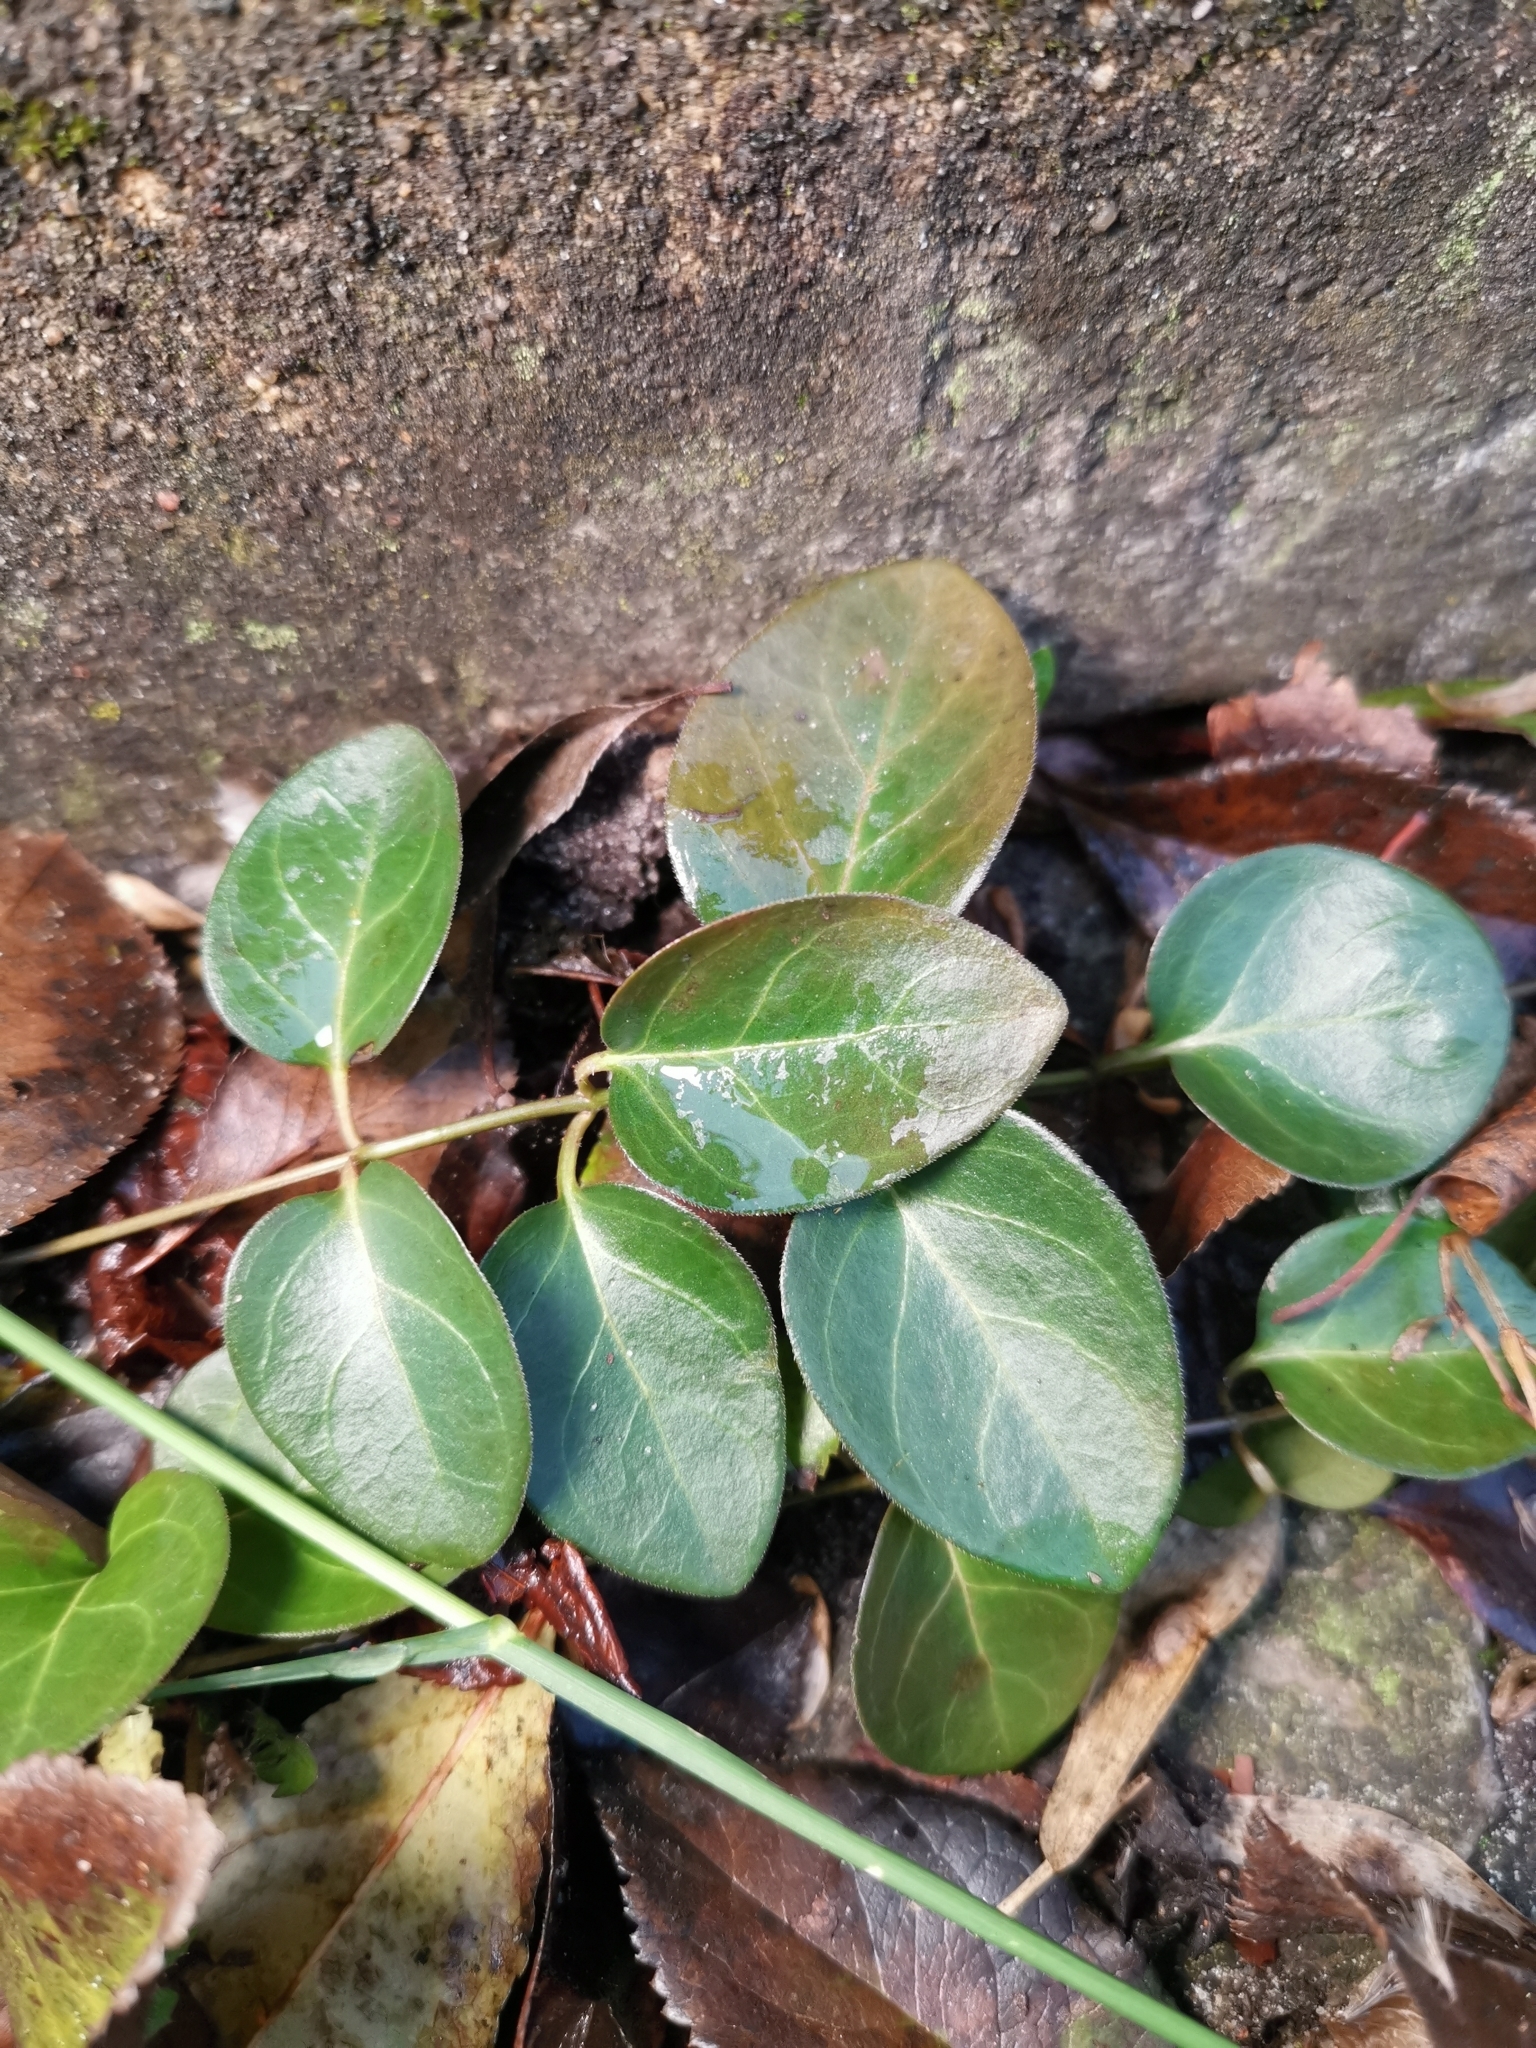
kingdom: Plantae
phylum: Tracheophyta
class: Magnoliopsida
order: Gentianales
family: Apocynaceae
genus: Vinca
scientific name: Vinca major
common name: Greater periwinkle
